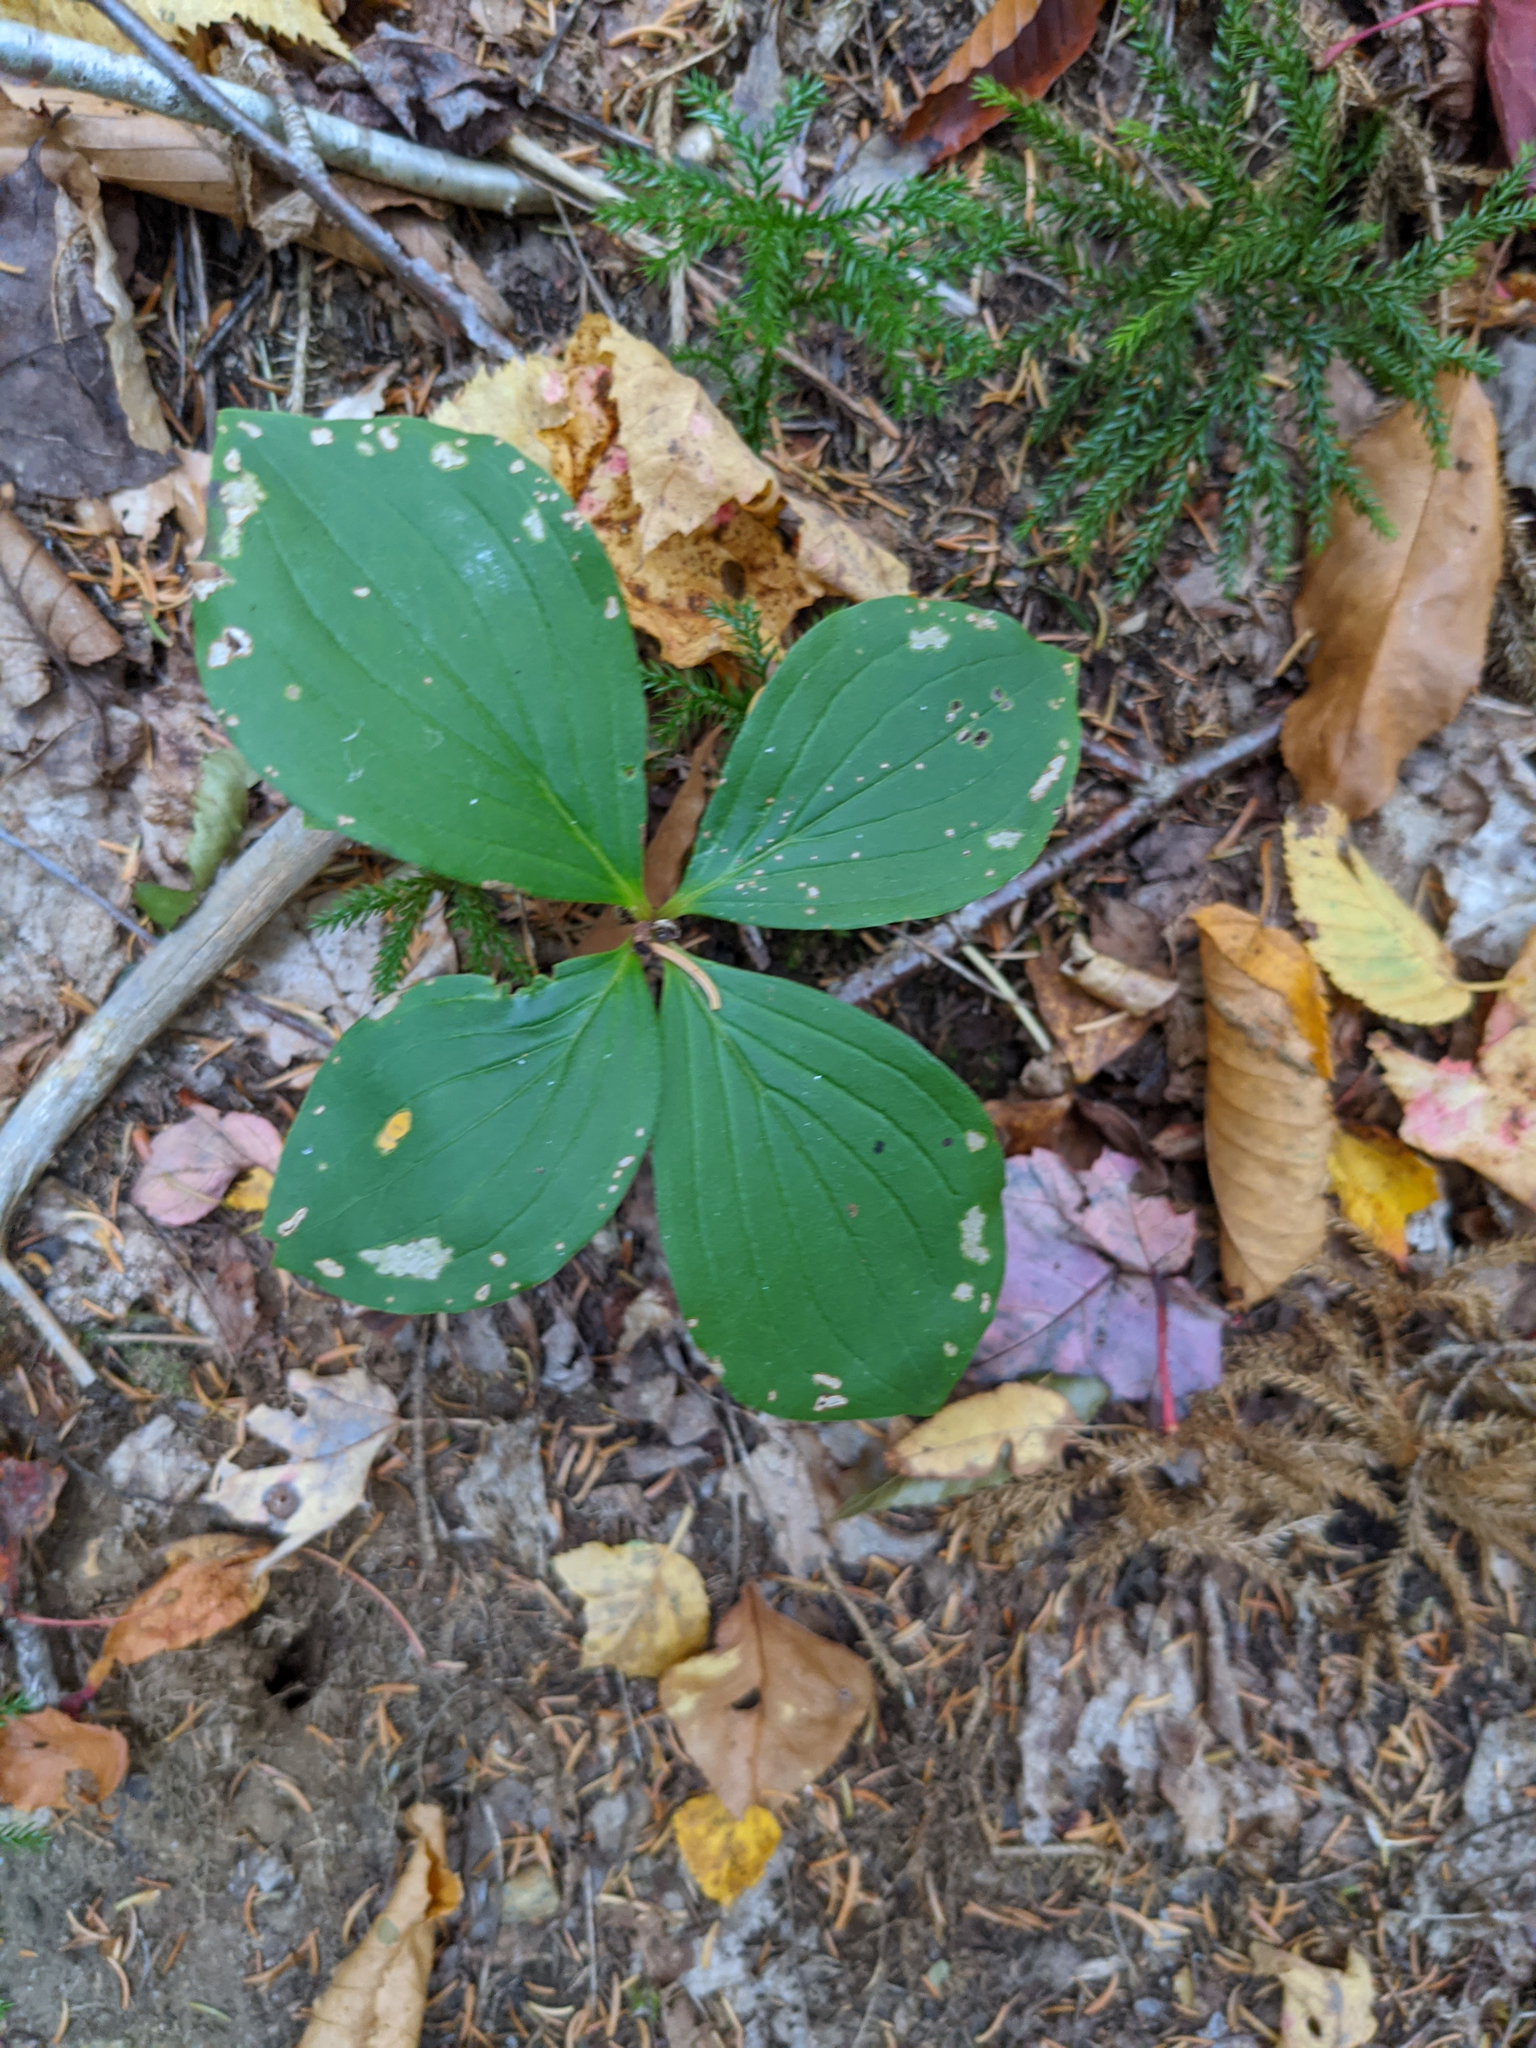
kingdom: Plantae
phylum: Tracheophyta
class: Magnoliopsida
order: Cornales
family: Cornaceae
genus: Cornus
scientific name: Cornus canadensis
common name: Creeping dogwood
